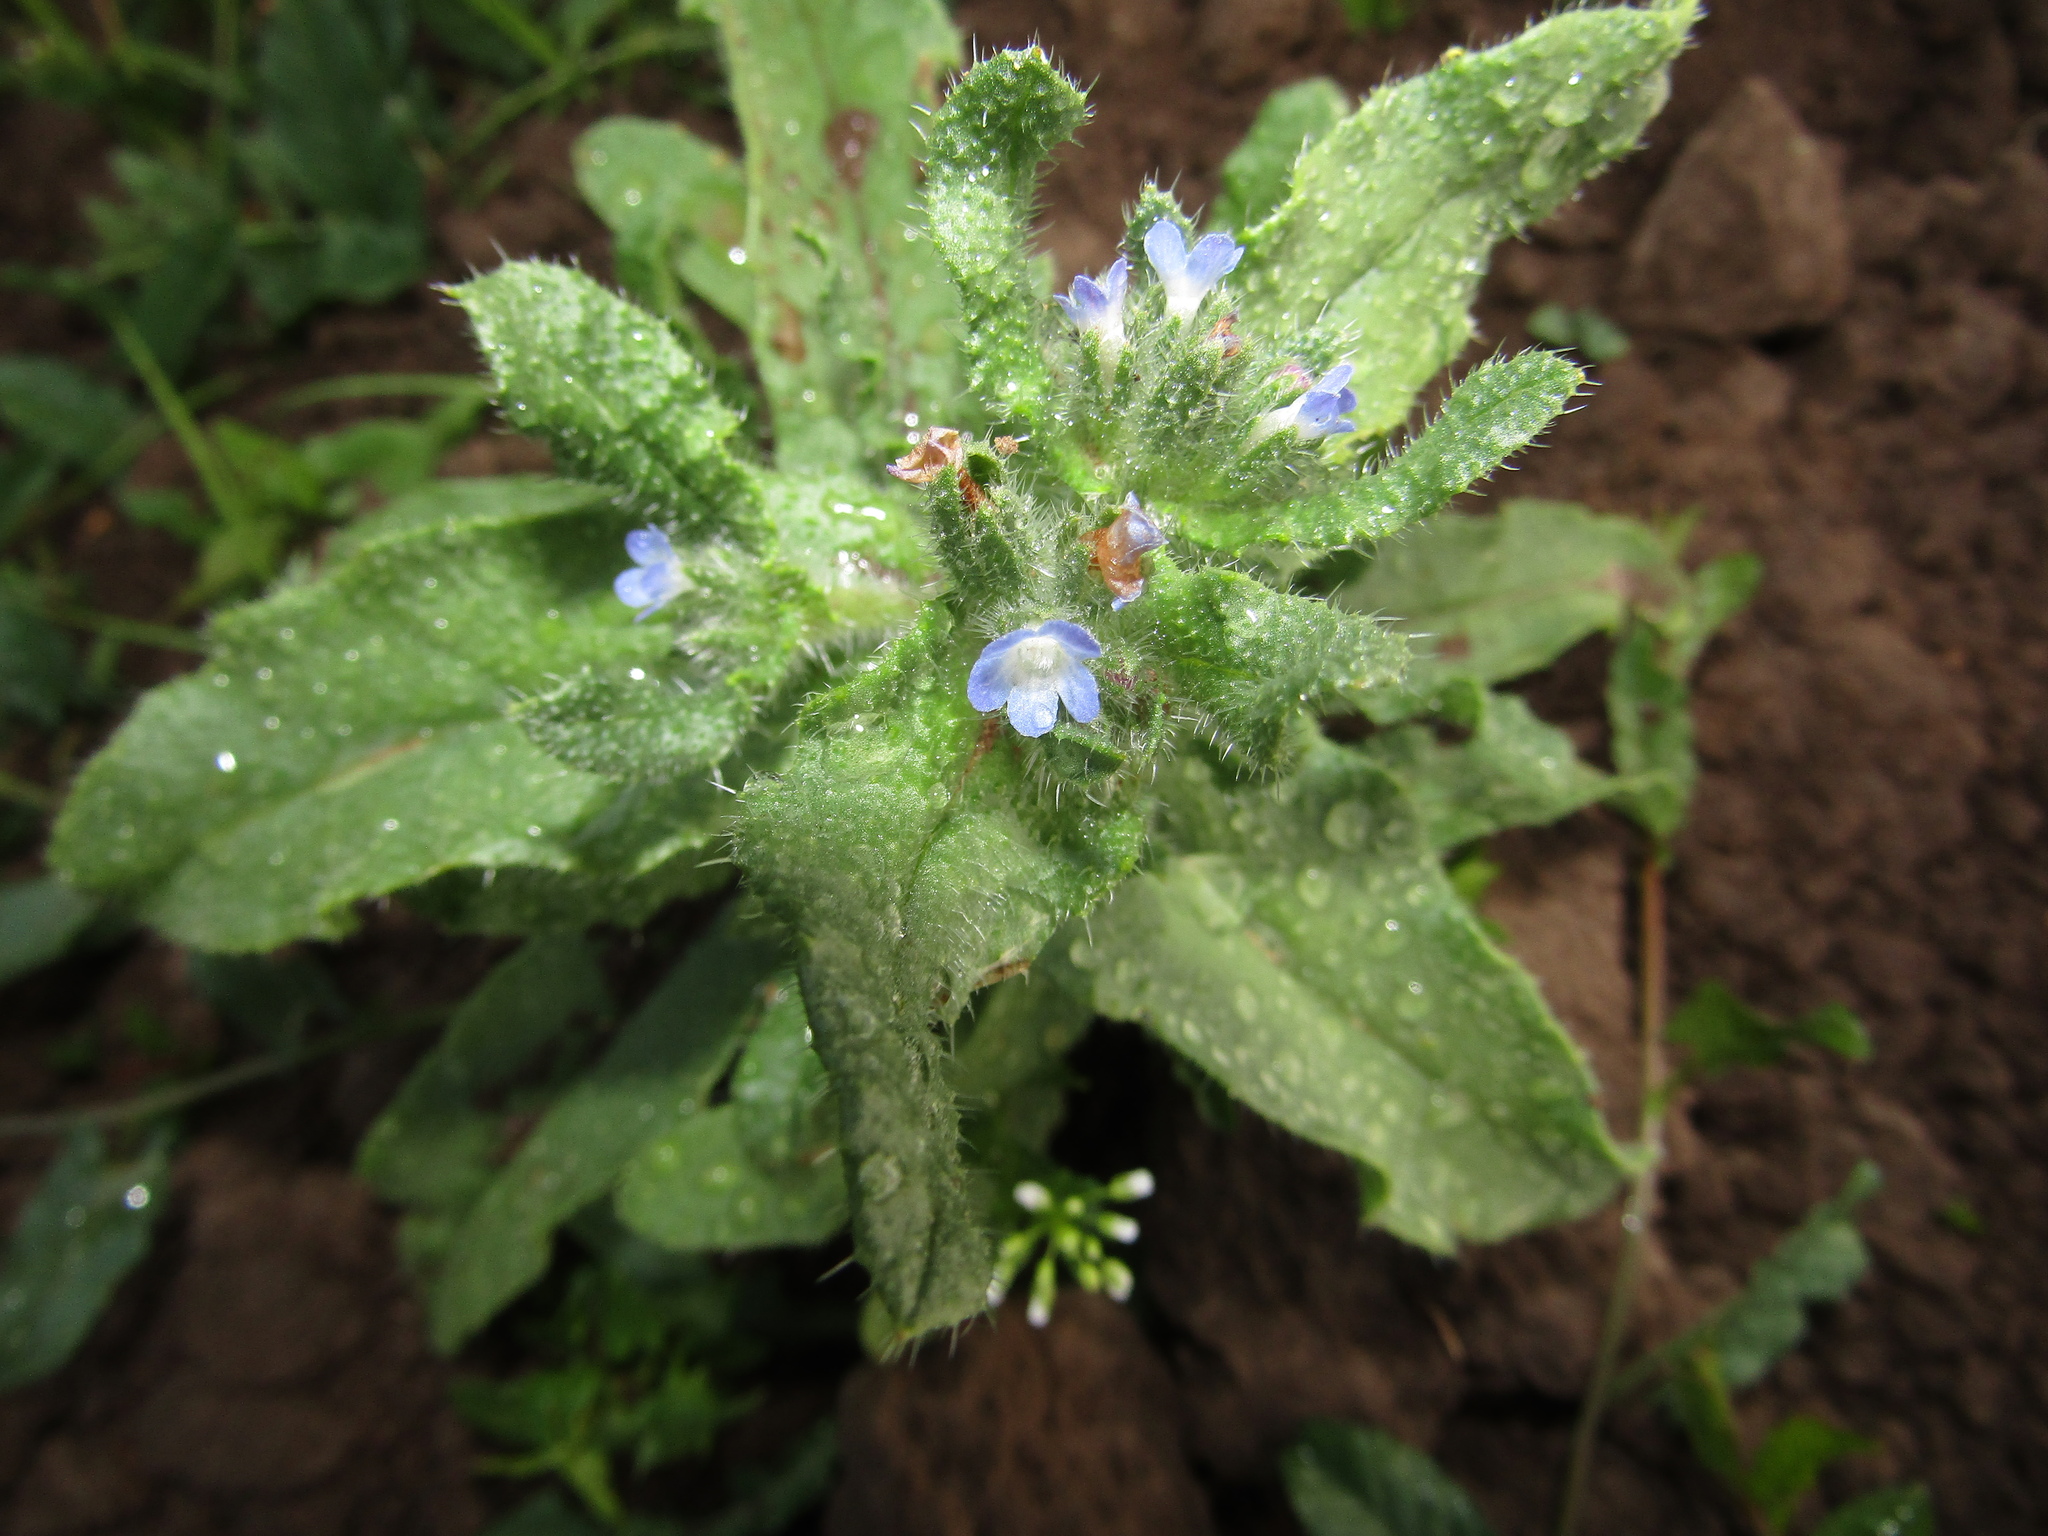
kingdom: Plantae
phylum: Tracheophyta
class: Magnoliopsida
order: Boraginales
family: Boraginaceae
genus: Lycopsis
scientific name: Lycopsis arvensis
